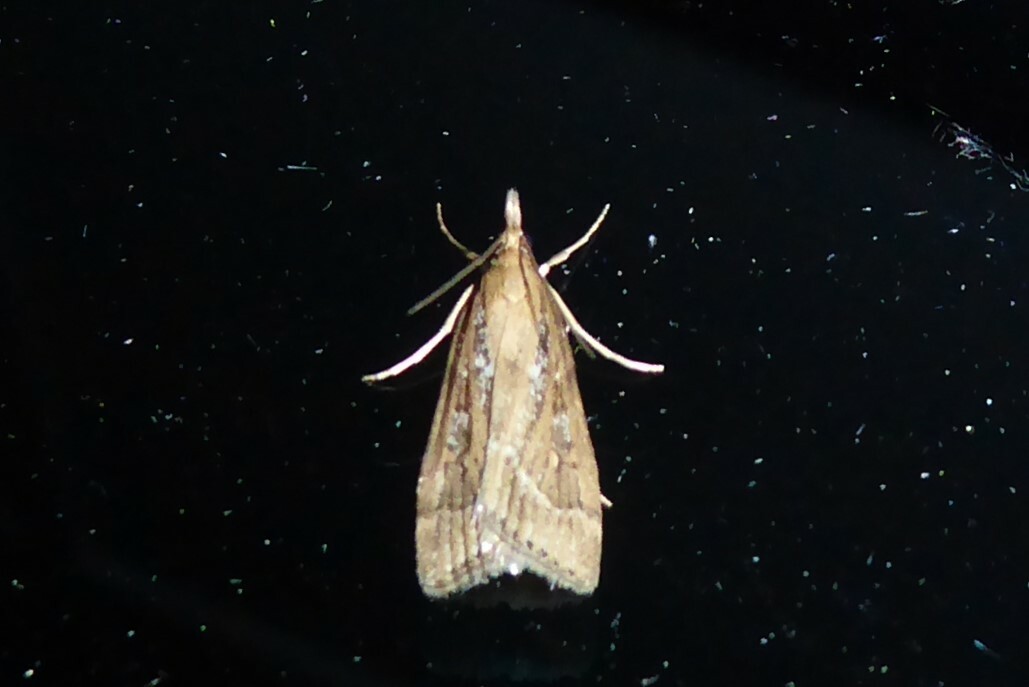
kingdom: Animalia
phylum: Arthropoda
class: Insecta
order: Lepidoptera
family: Crambidae
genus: Eudonia
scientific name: Eudonia octophora
